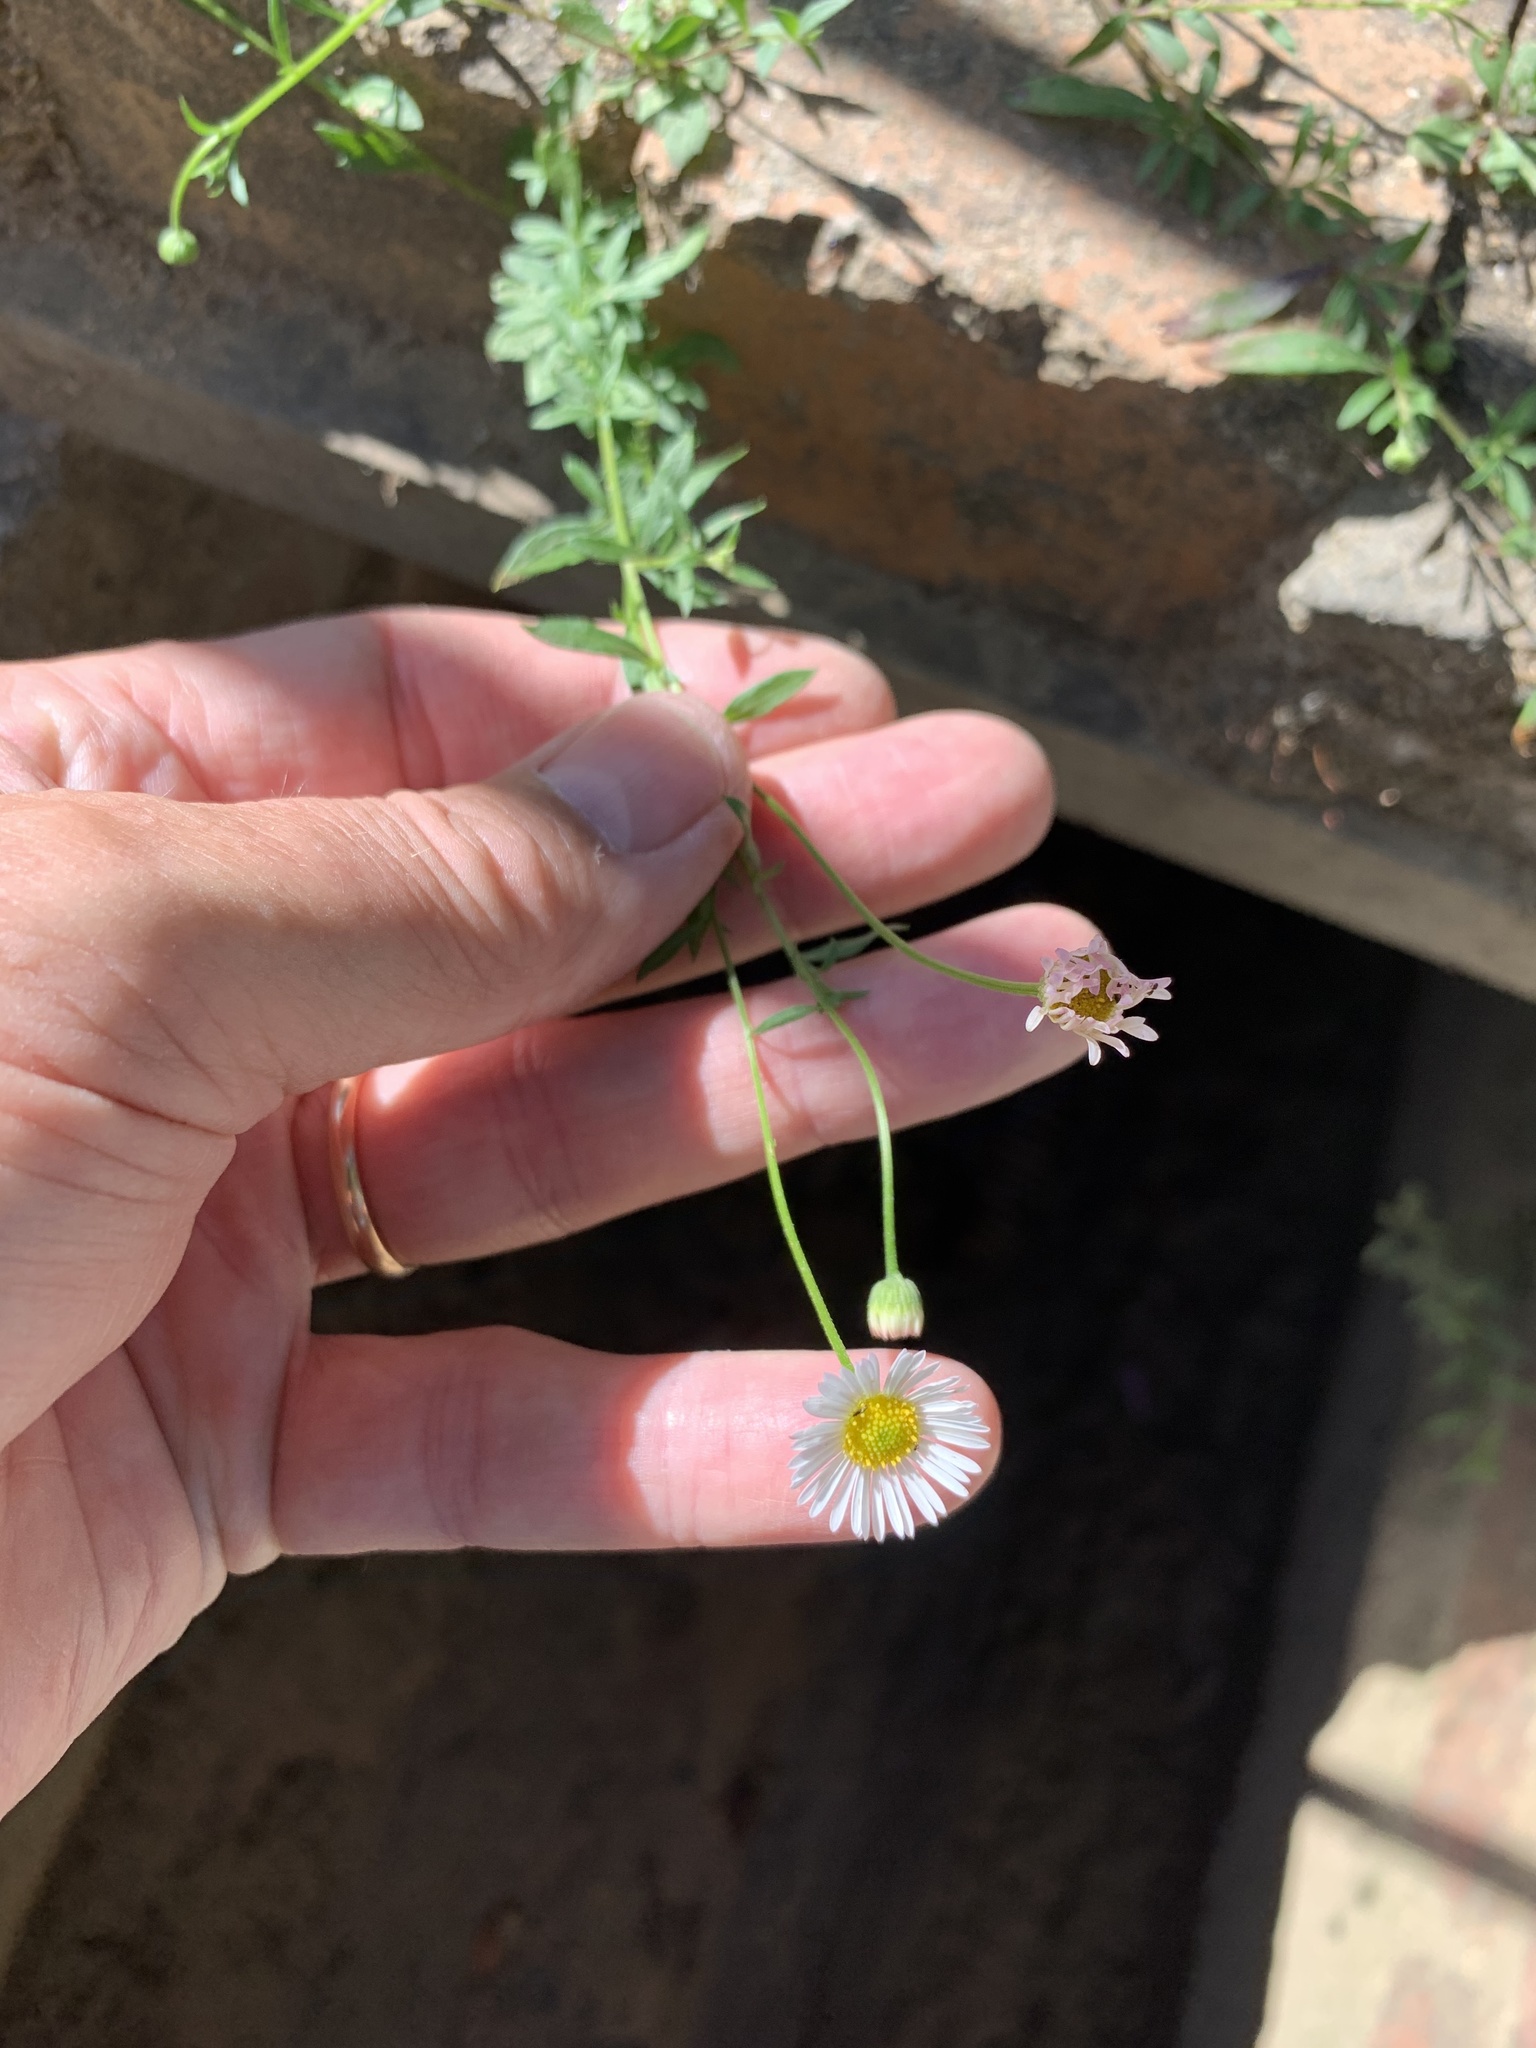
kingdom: Plantae
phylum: Tracheophyta
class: Magnoliopsida
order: Asterales
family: Asteraceae
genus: Erigeron
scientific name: Erigeron karvinskianus
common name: Mexican fleabane
